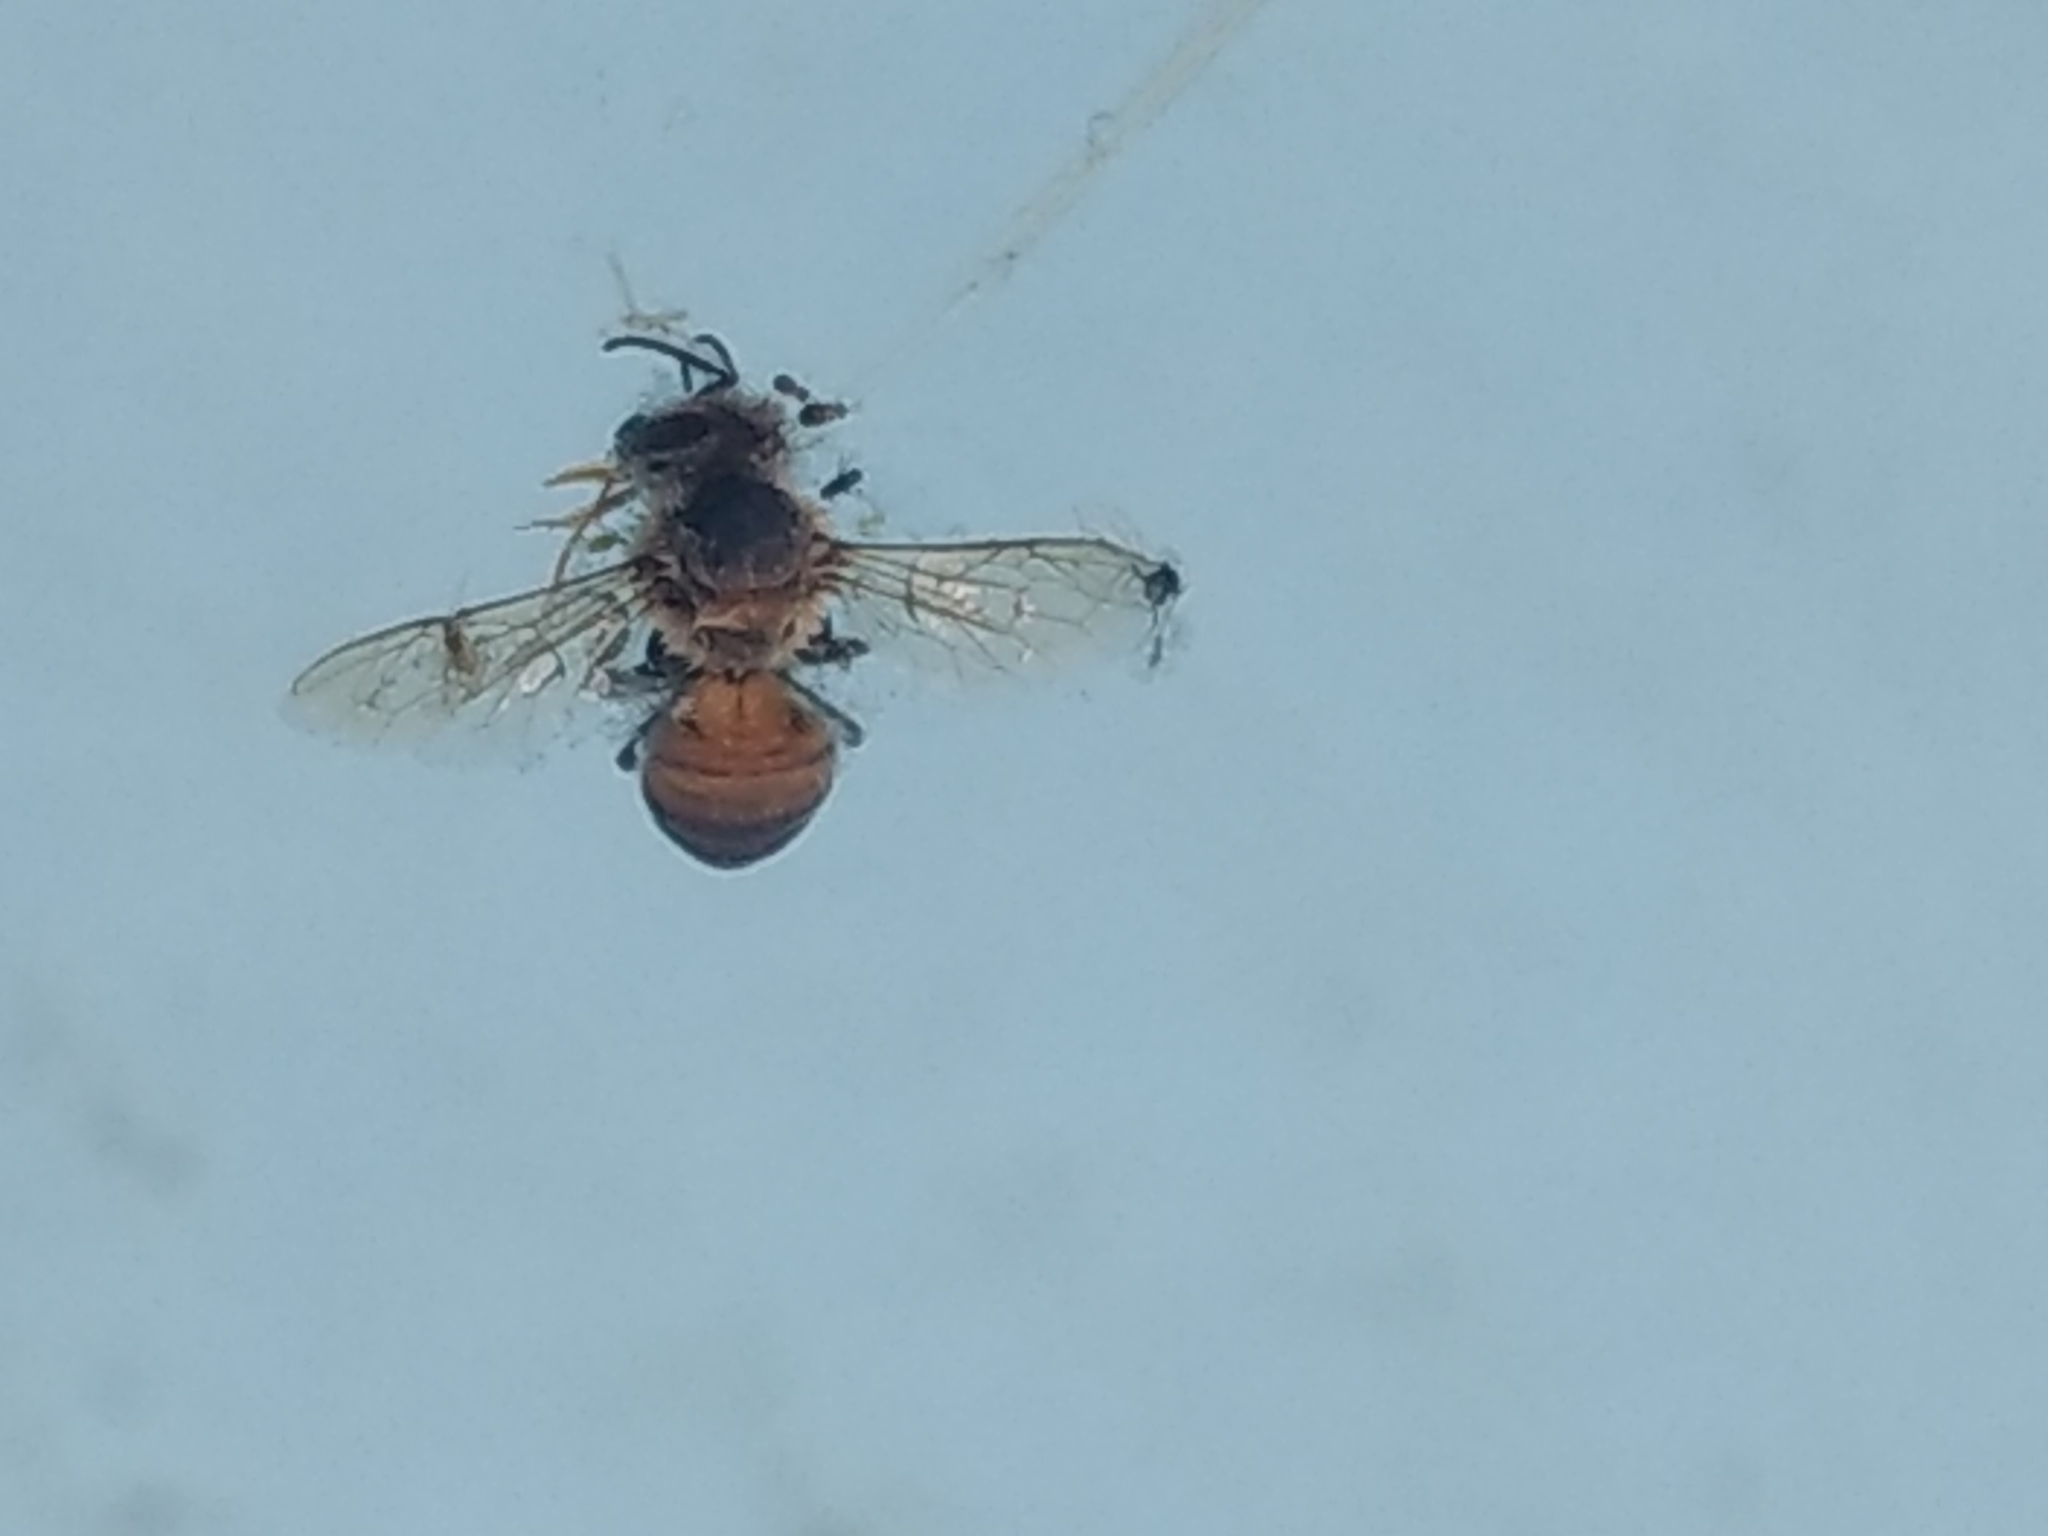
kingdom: Animalia
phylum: Arthropoda
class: Insecta
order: Hymenoptera
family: Apidae
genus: Apis
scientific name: Apis mellifera
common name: Honey bee
